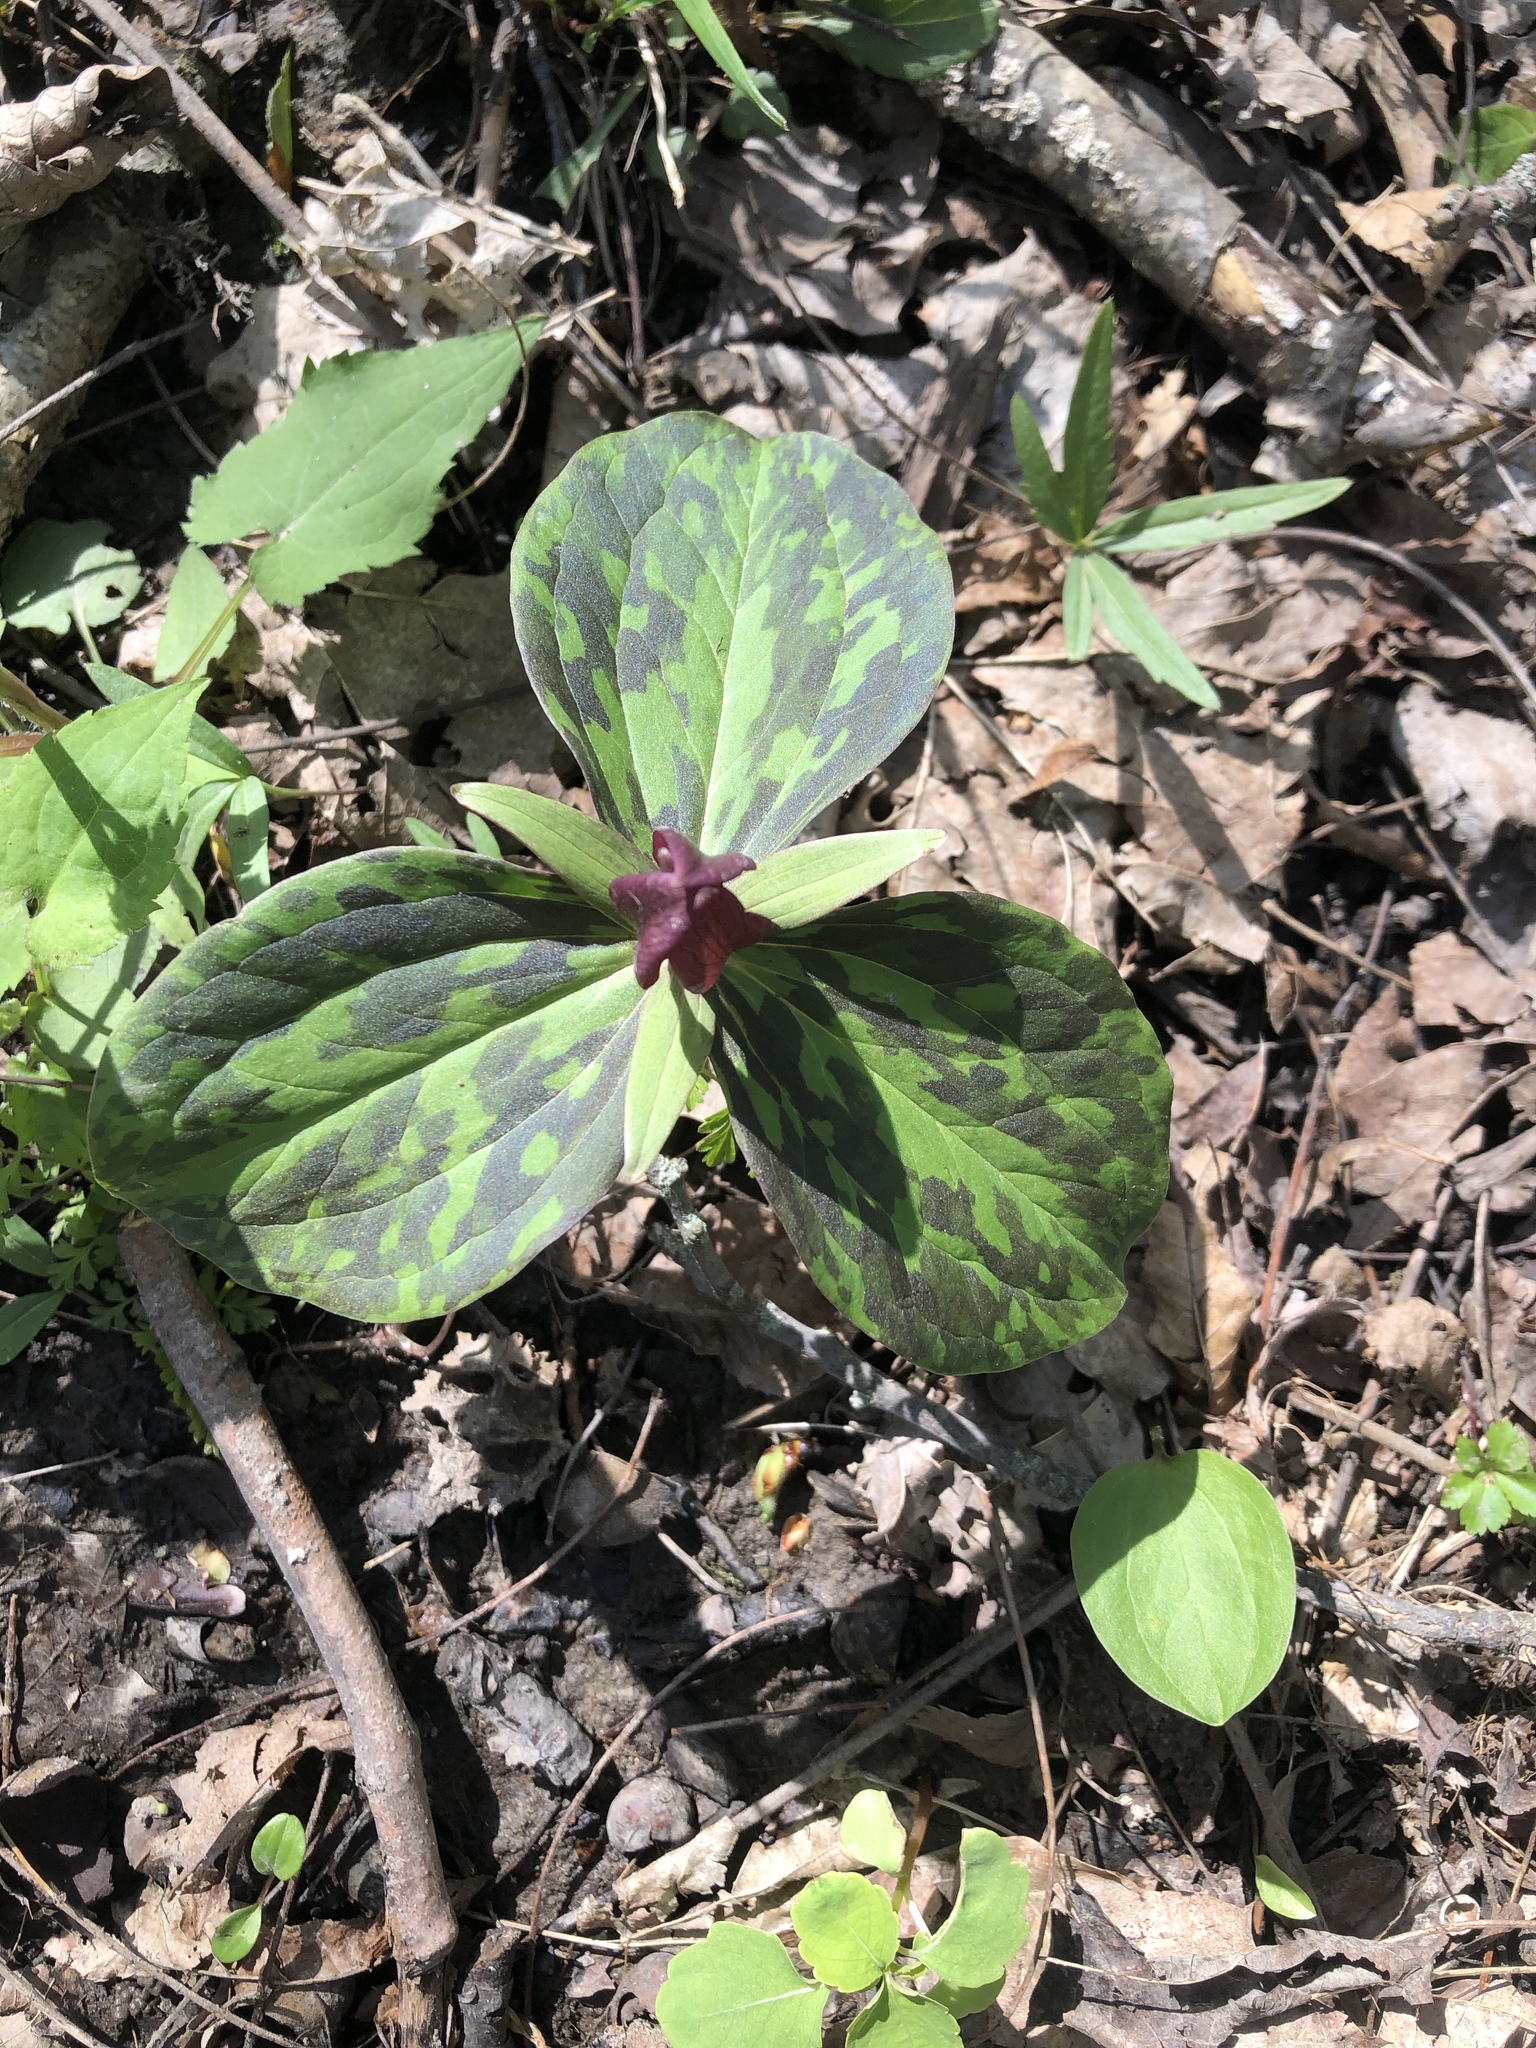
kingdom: Plantae
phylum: Tracheophyta
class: Liliopsida
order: Liliales
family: Melanthiaceae
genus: Trillium
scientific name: Trillium sessile
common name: Sessile trillium
